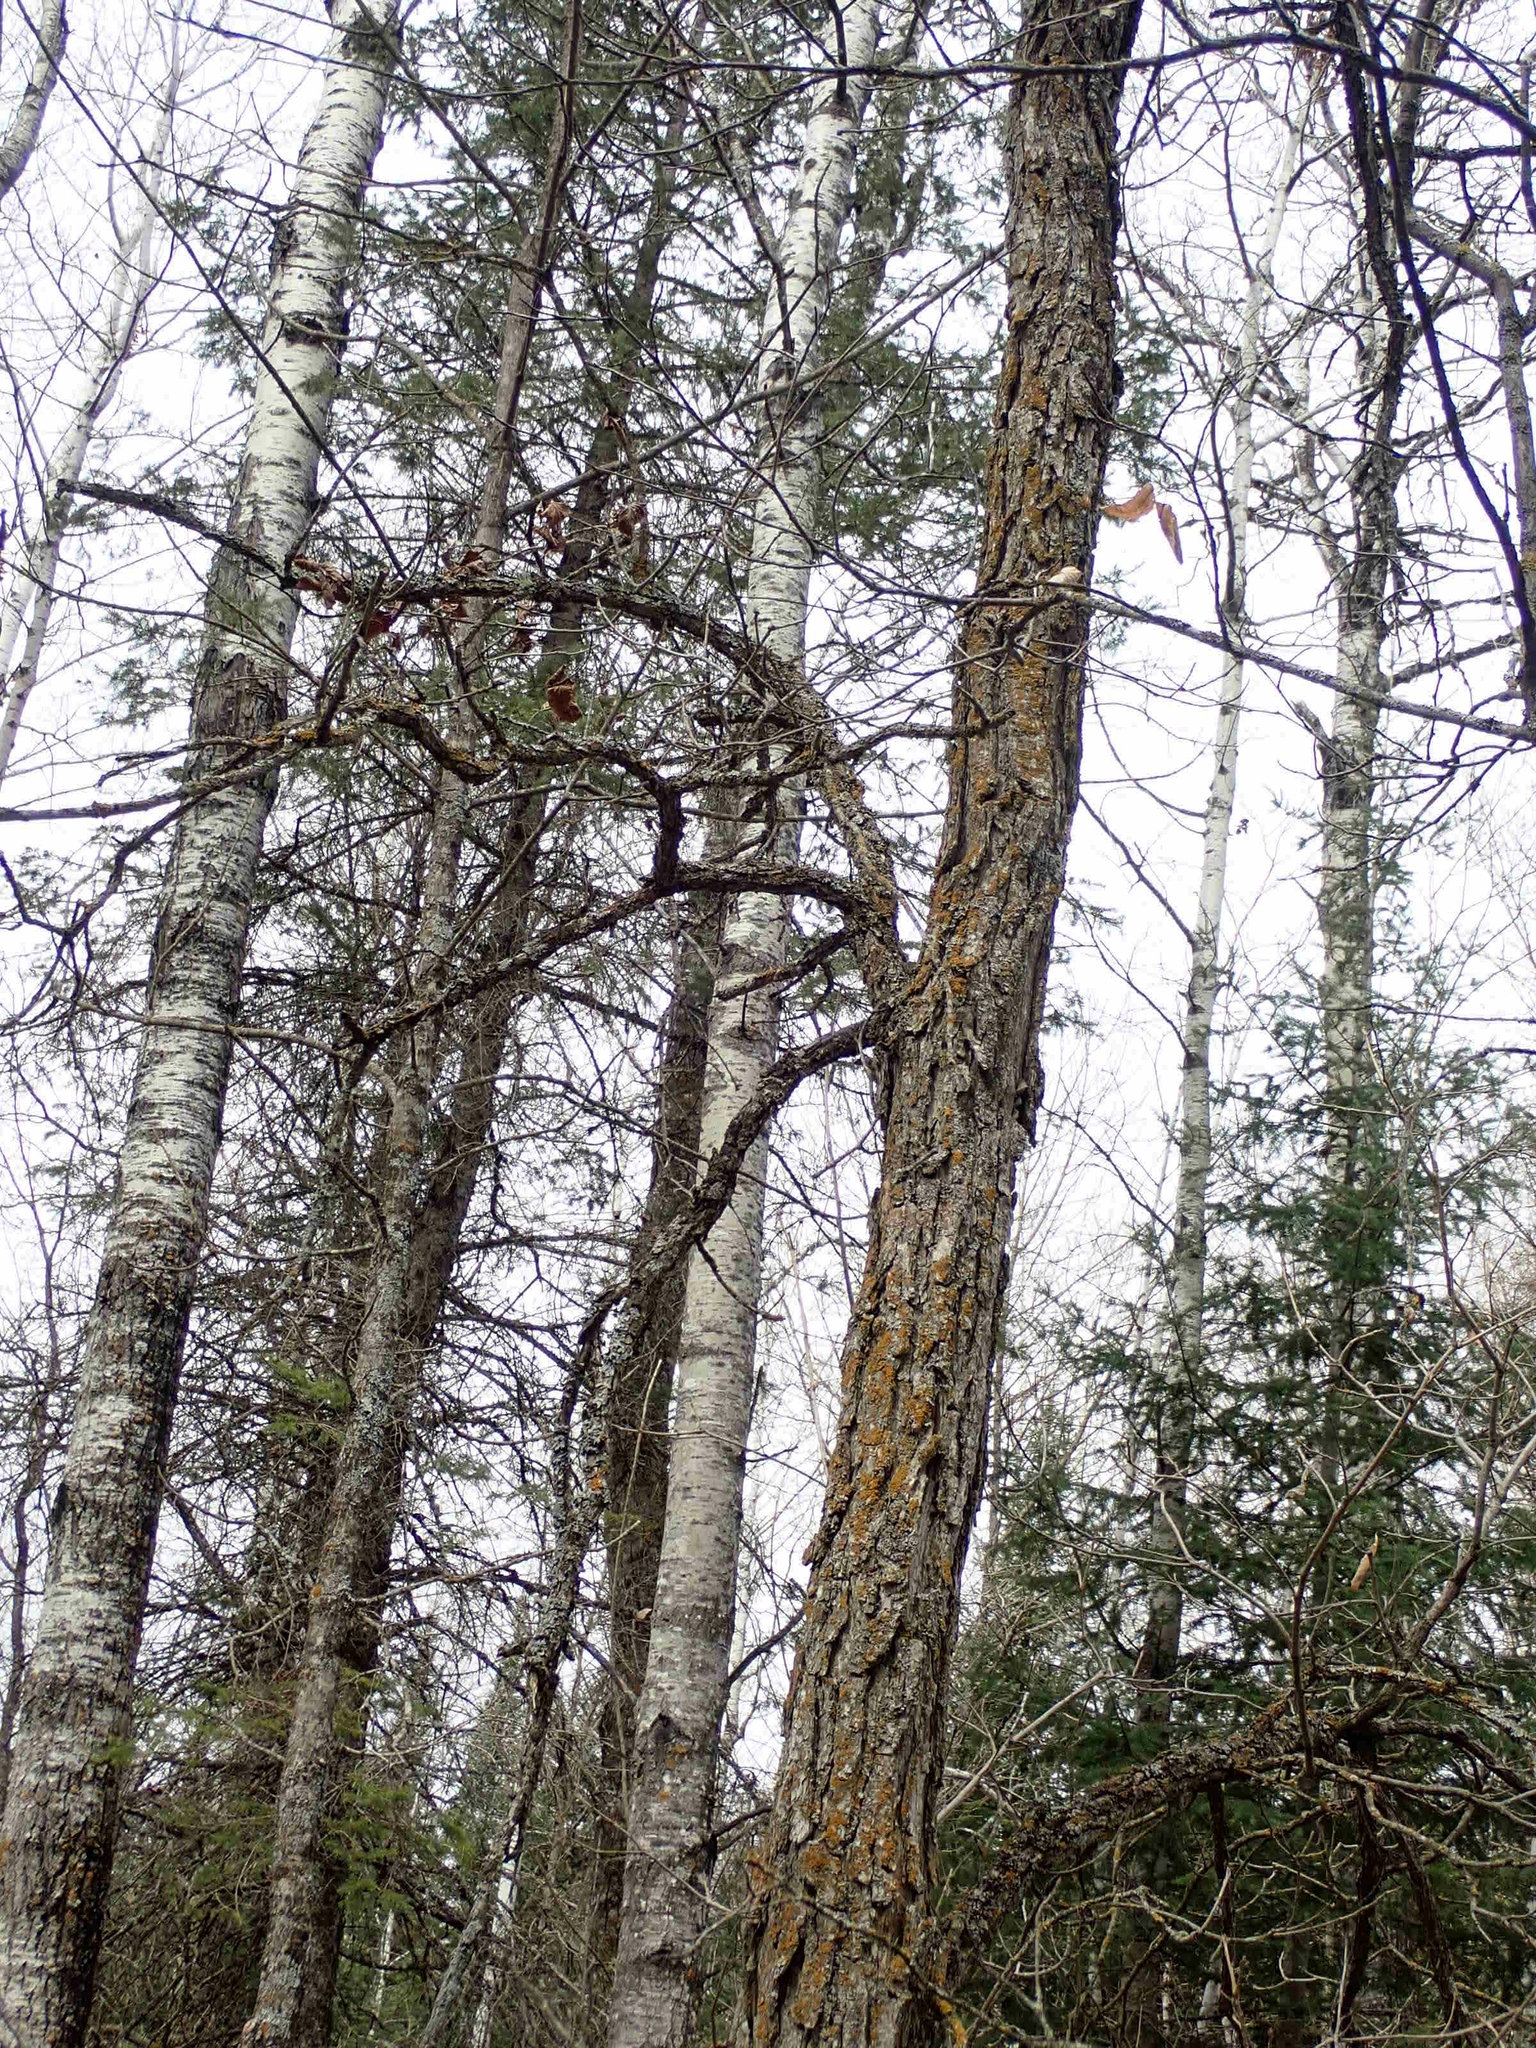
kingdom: Plantae
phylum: Tracheophyta
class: Magnoliopsida
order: Fagales
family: Fagaceae
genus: Quercus
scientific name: Quercus macrocarpa
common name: Bur oak
